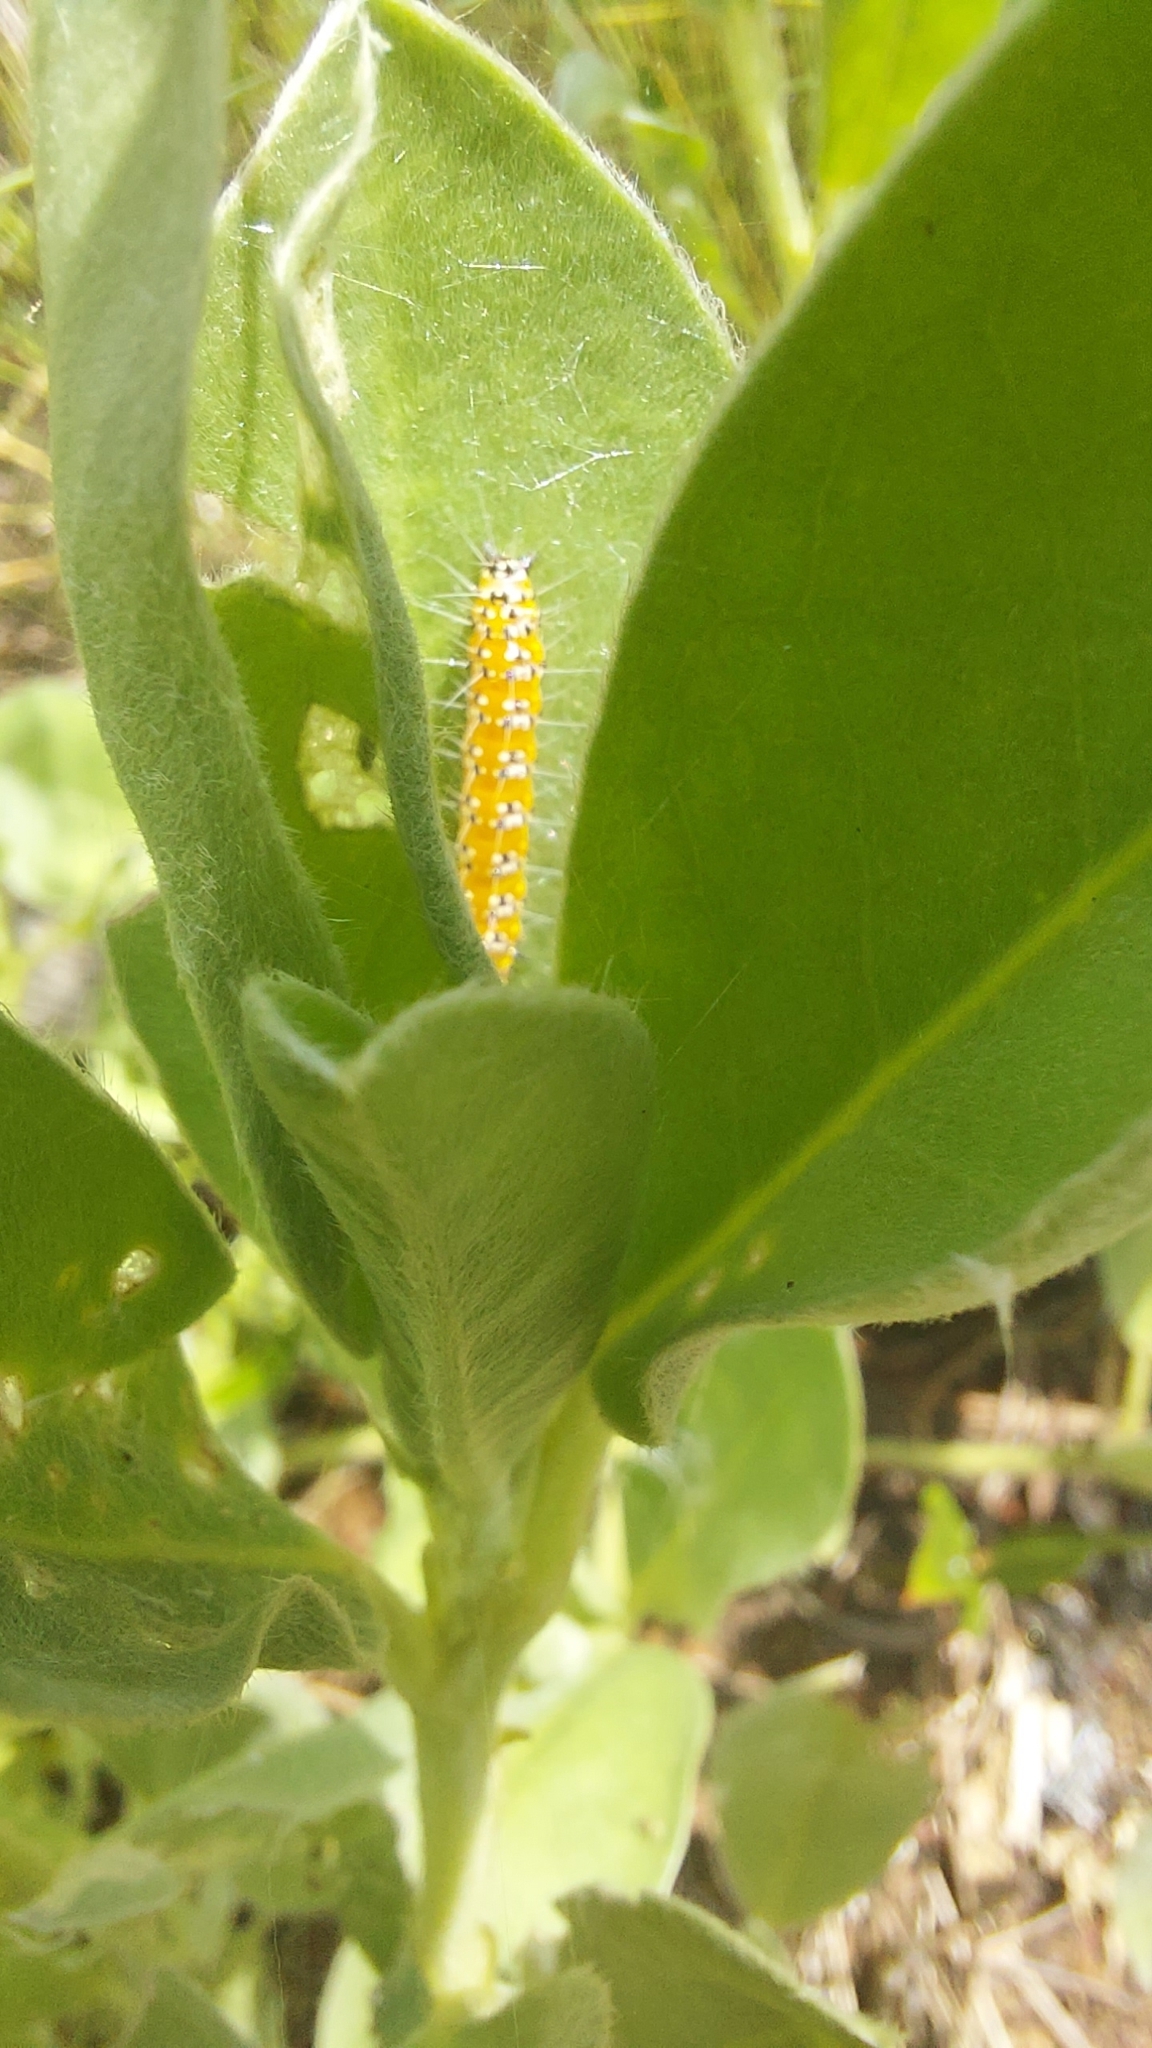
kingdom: Animalia
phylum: Arthropoda
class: Insecta
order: Lepidoptera
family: Crambidae
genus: Uresiphita
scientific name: Uresiphita reversalis
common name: Genista broom moth
